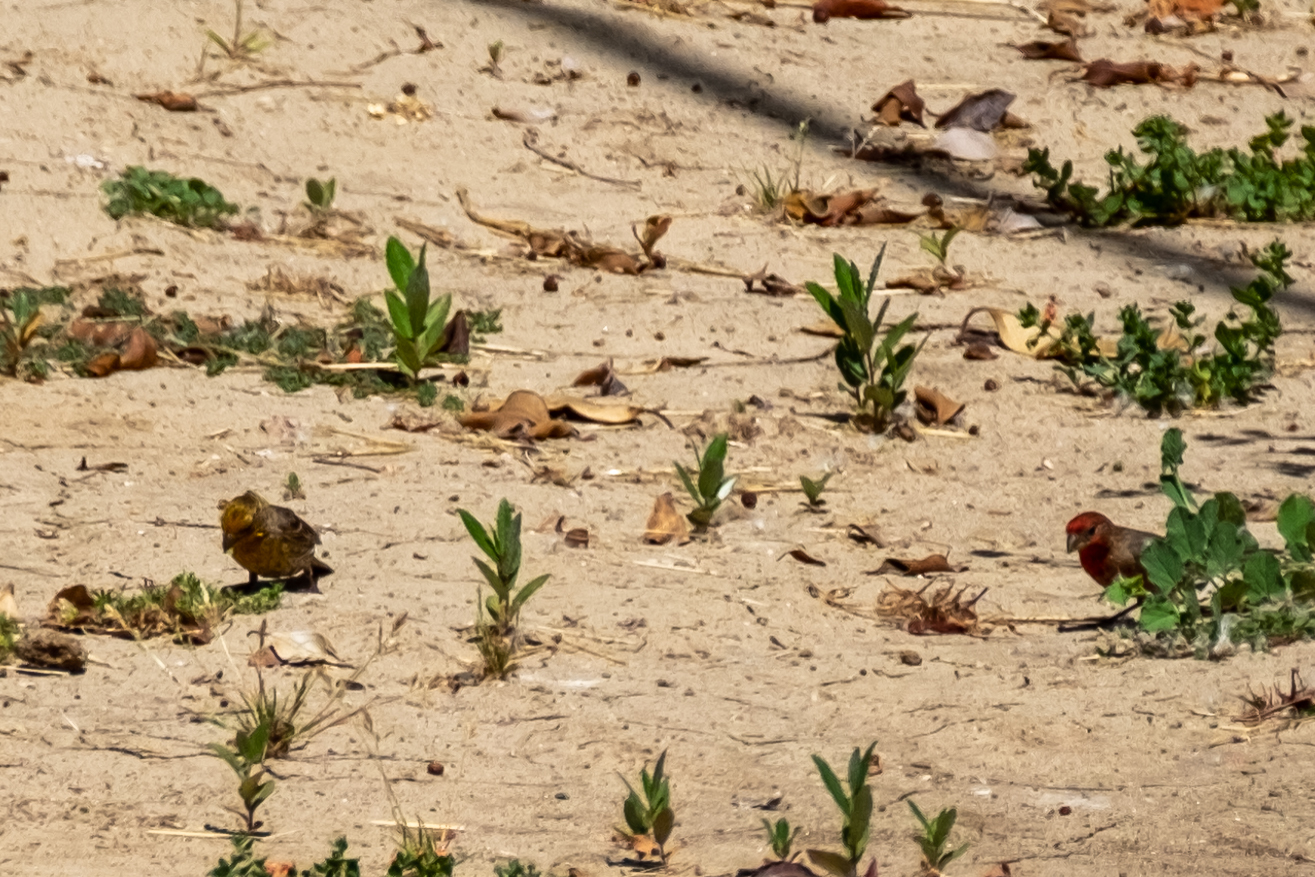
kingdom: Animalia
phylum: Chordata
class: Aves
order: Passeriformes
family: Fringillidae
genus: Haemorhous
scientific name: Haemorhous mexicanus
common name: House finch
